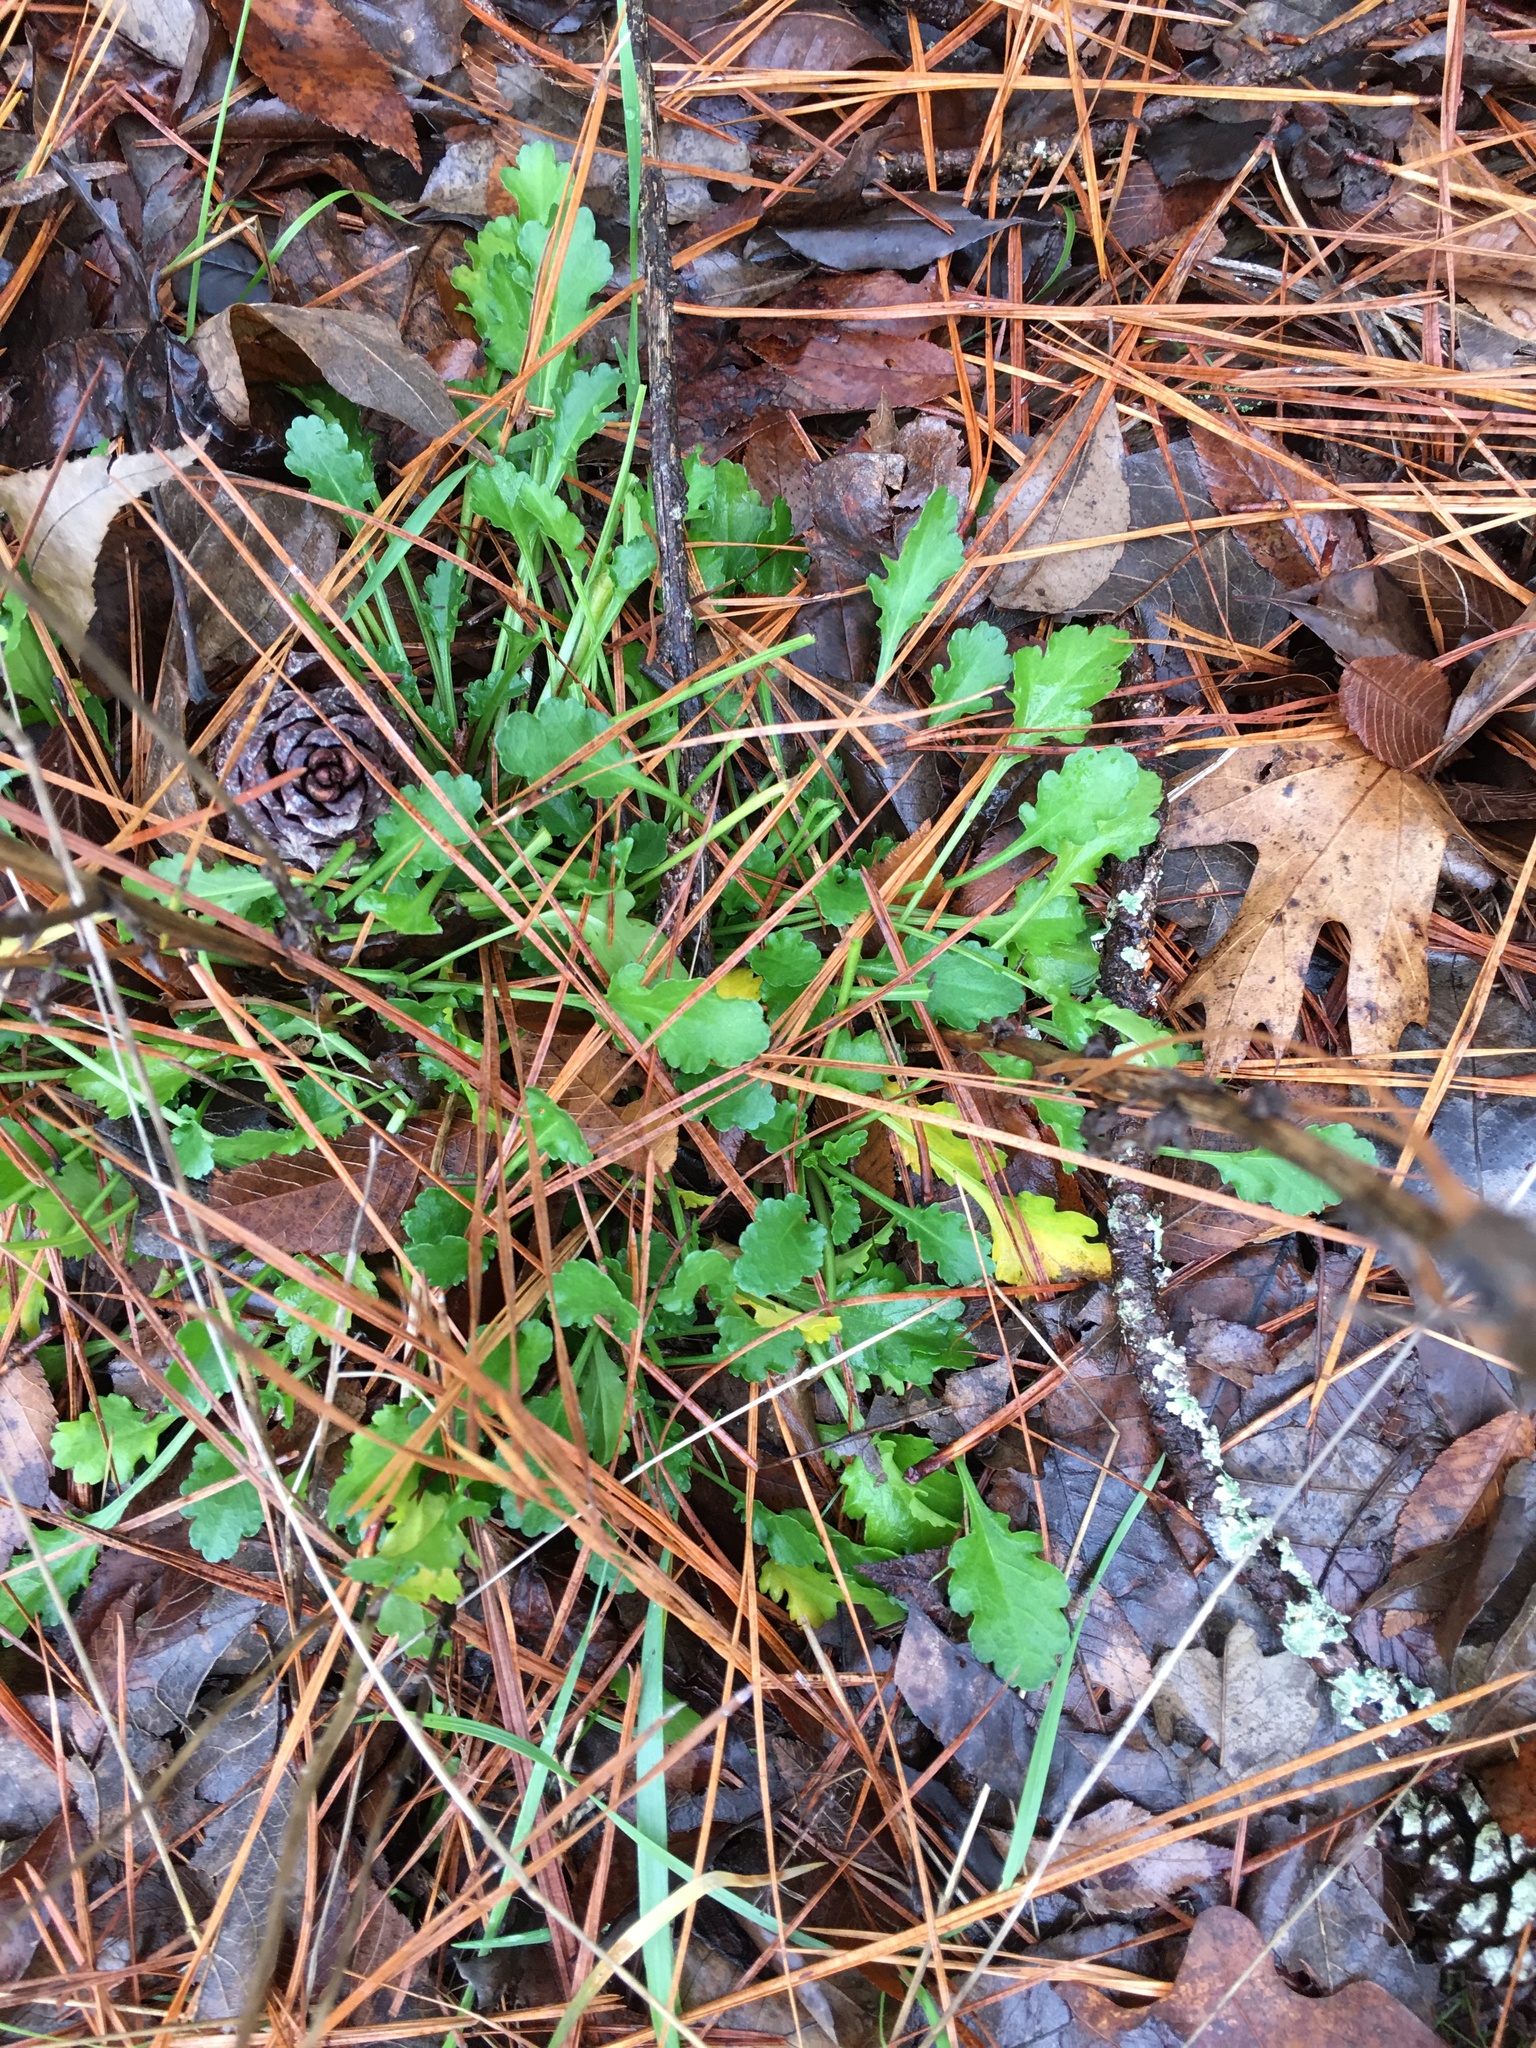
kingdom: Plantae
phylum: Tracheophyta
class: Magnoliopsida
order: Asterales
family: Asteraceae
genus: Leucanthemum
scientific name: Leucanthemum vulgare
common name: Oxeye daisy
